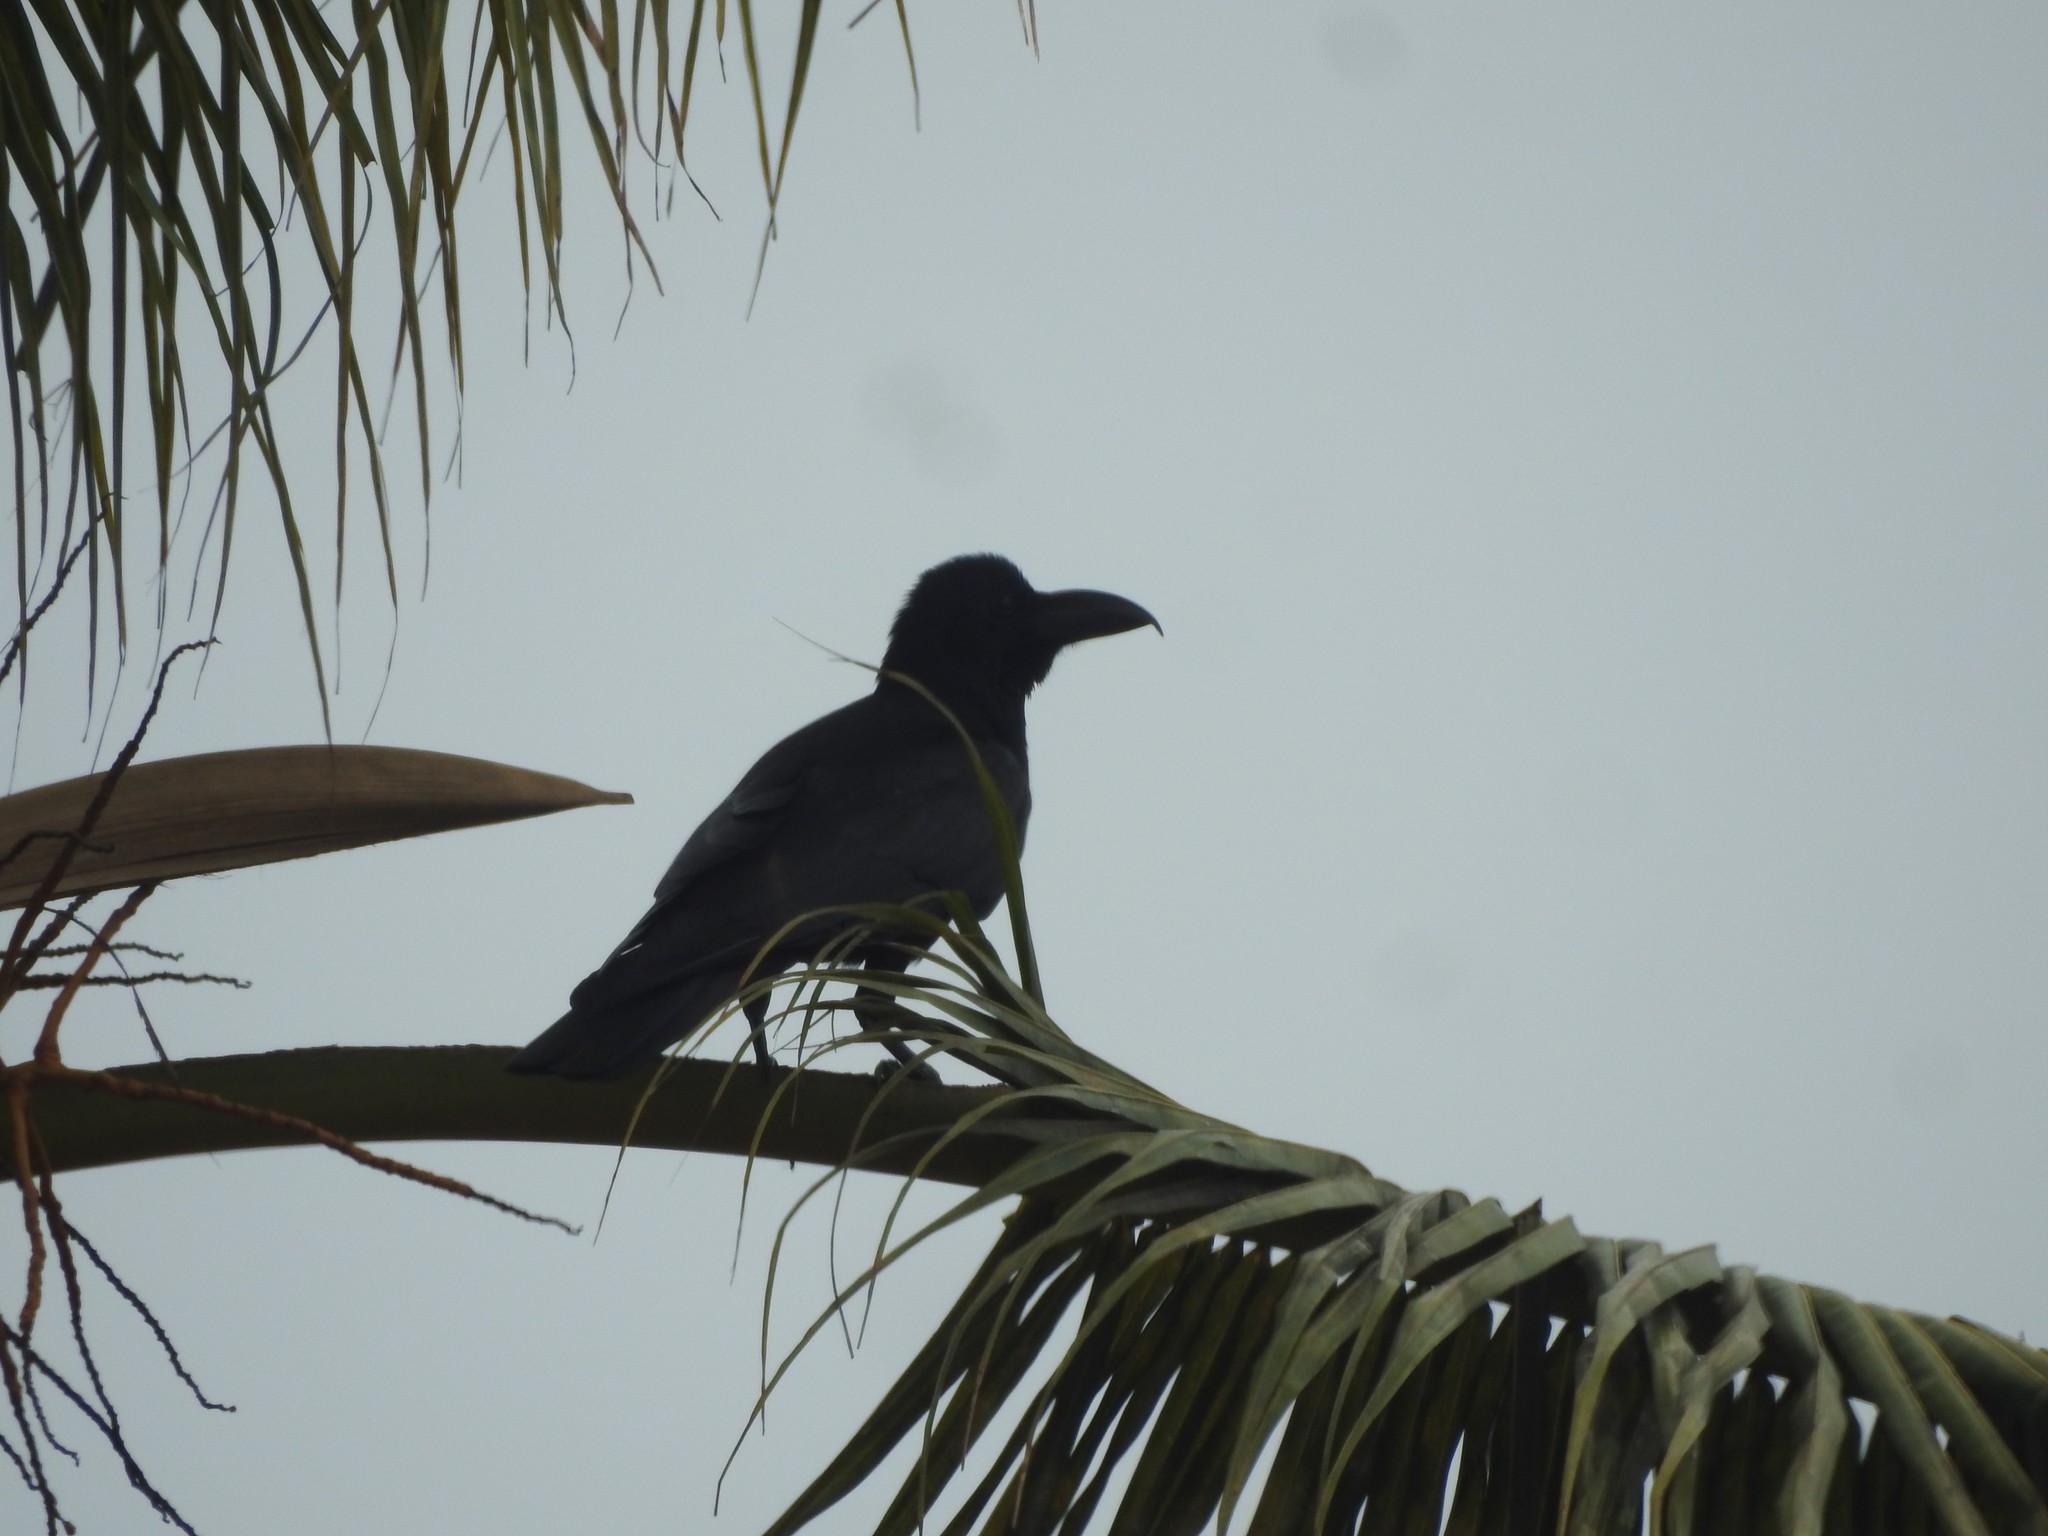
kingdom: Animalia
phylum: Chordata
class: Aves
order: Passeriformes
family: Corvidae
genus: Corvus
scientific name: Corvus macrorhynchos
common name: Large-billed crow
